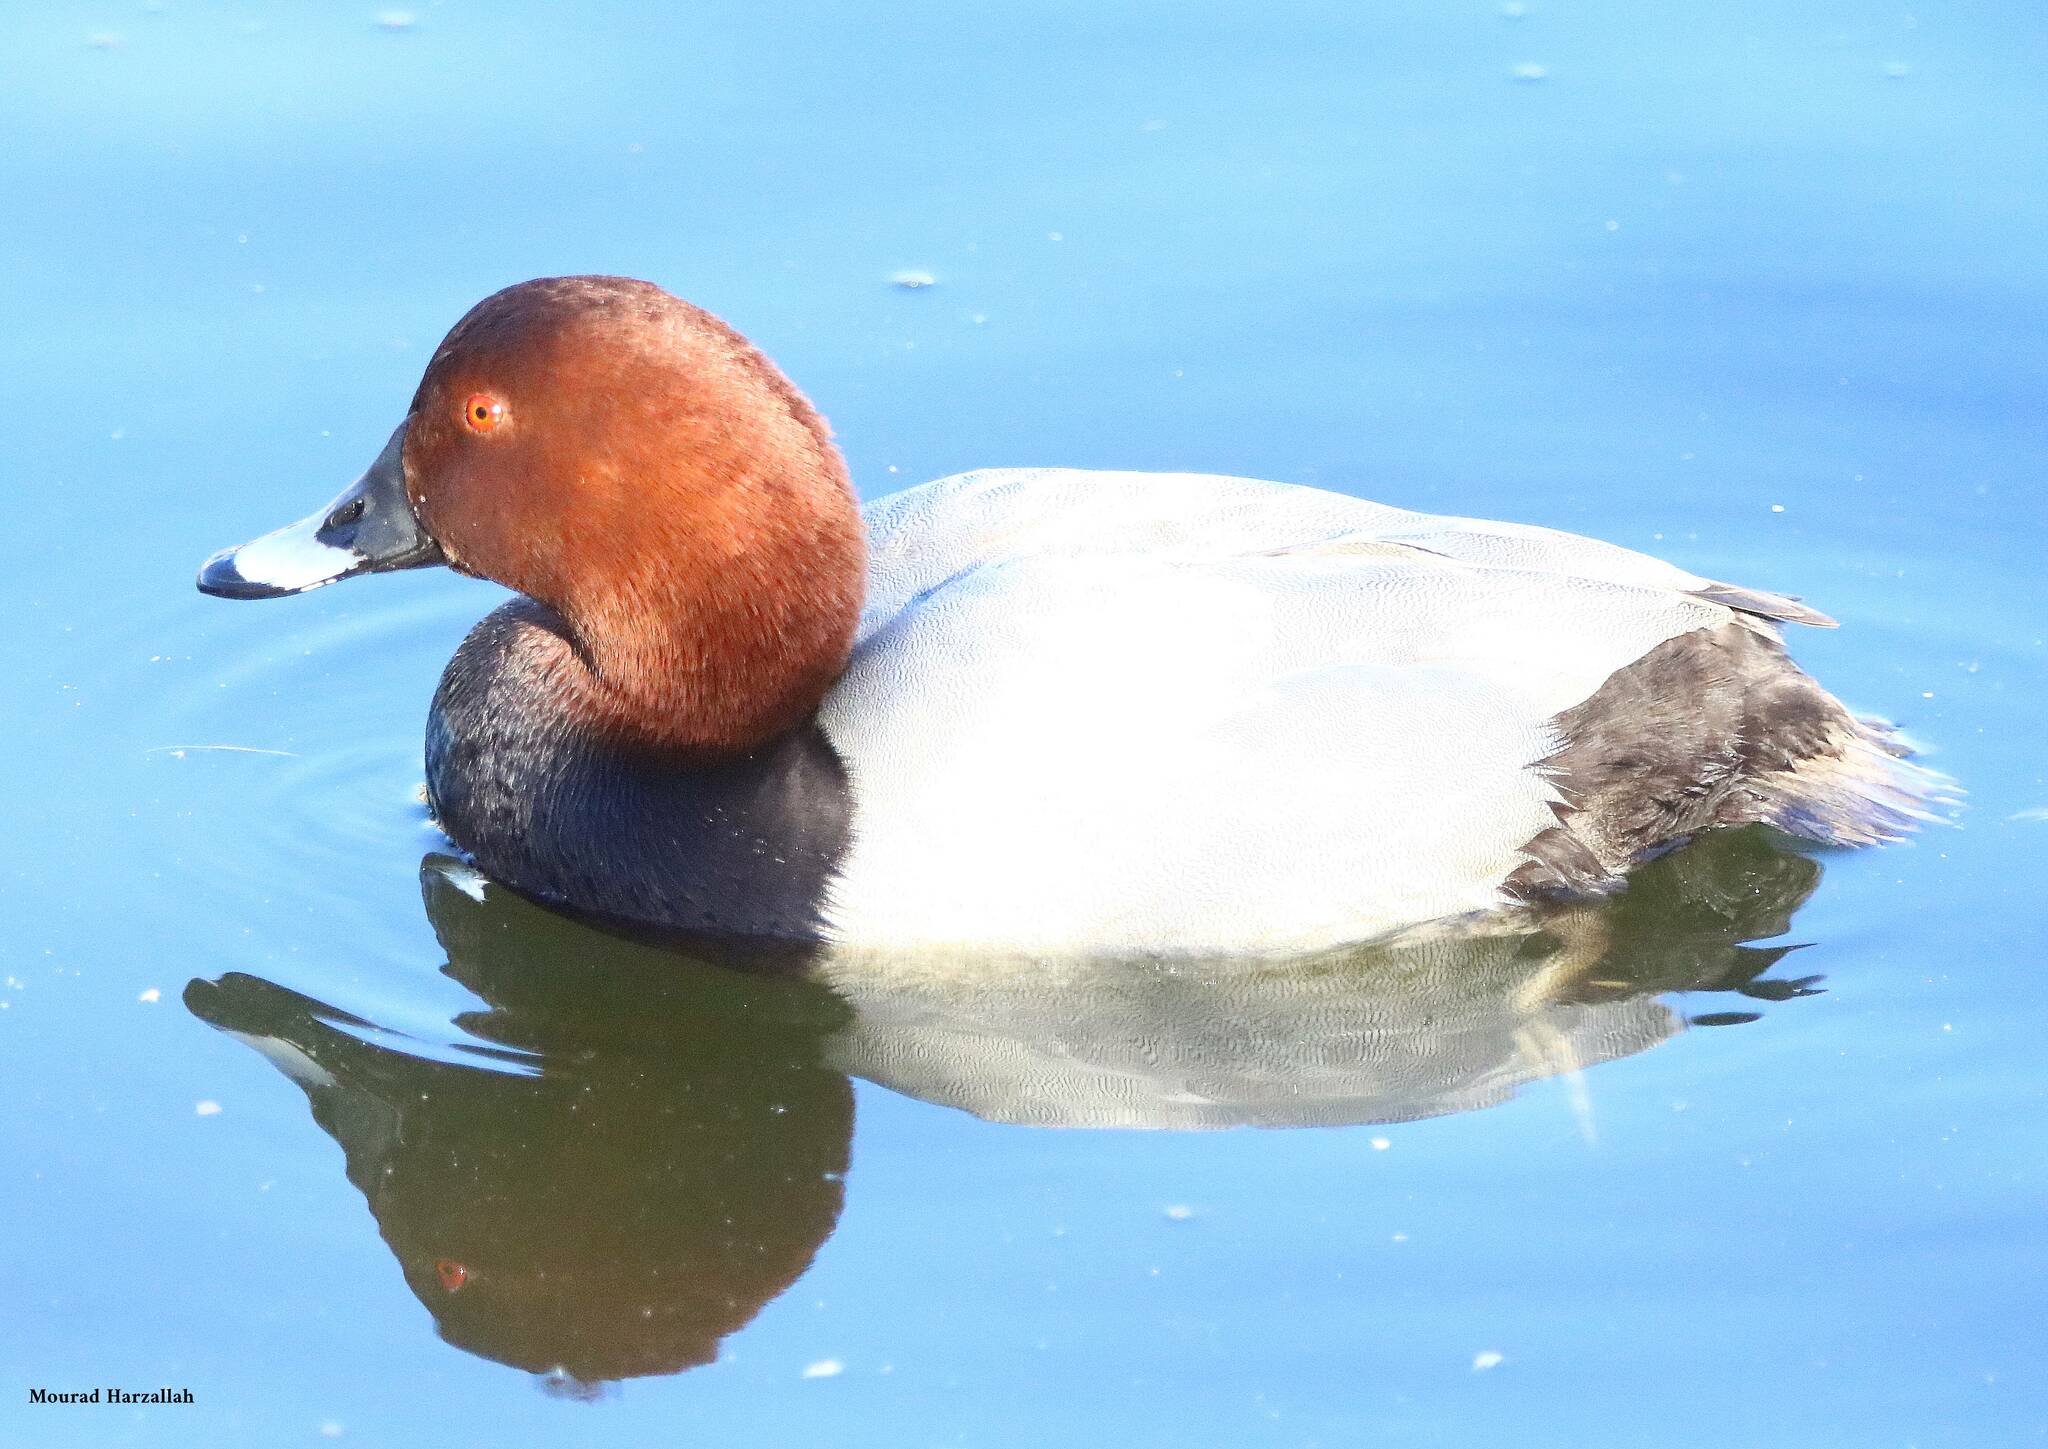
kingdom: Animalia
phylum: Chordata
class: Aves
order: Anseriformes
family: Anatidae
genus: Aythya
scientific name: Aythya ferina
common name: Common pochard
